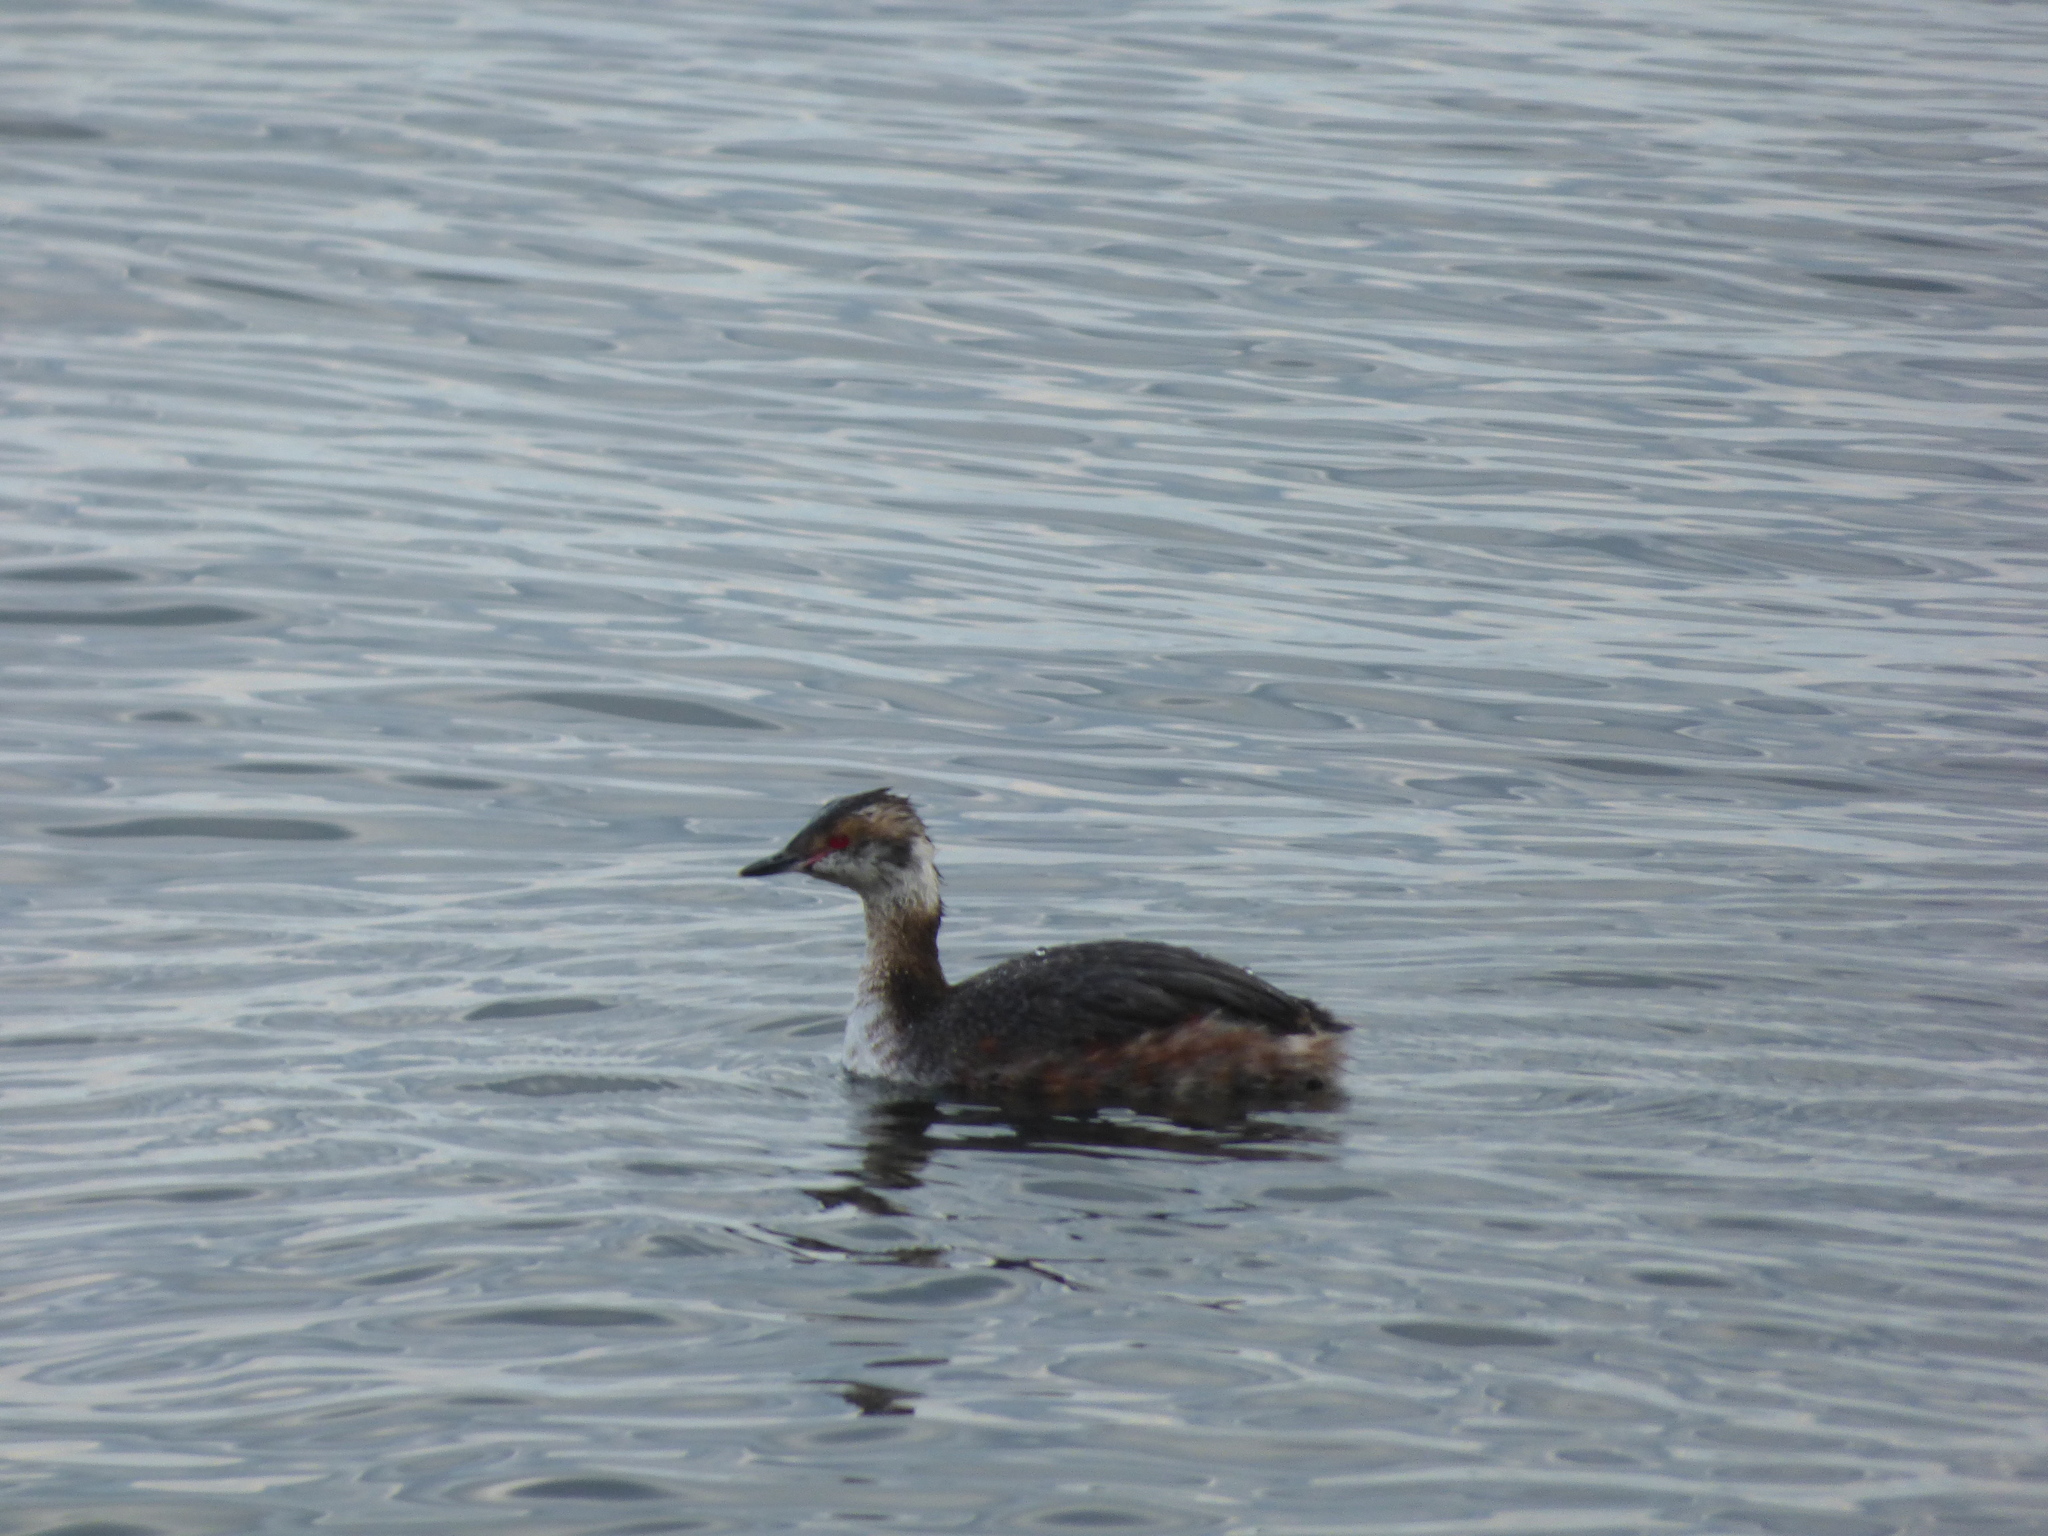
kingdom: Animalia
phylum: Chordata
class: Aves
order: Podicipediformes
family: Podicipedidae
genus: Podiceps
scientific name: Podiceps auritus
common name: Horned grebe
